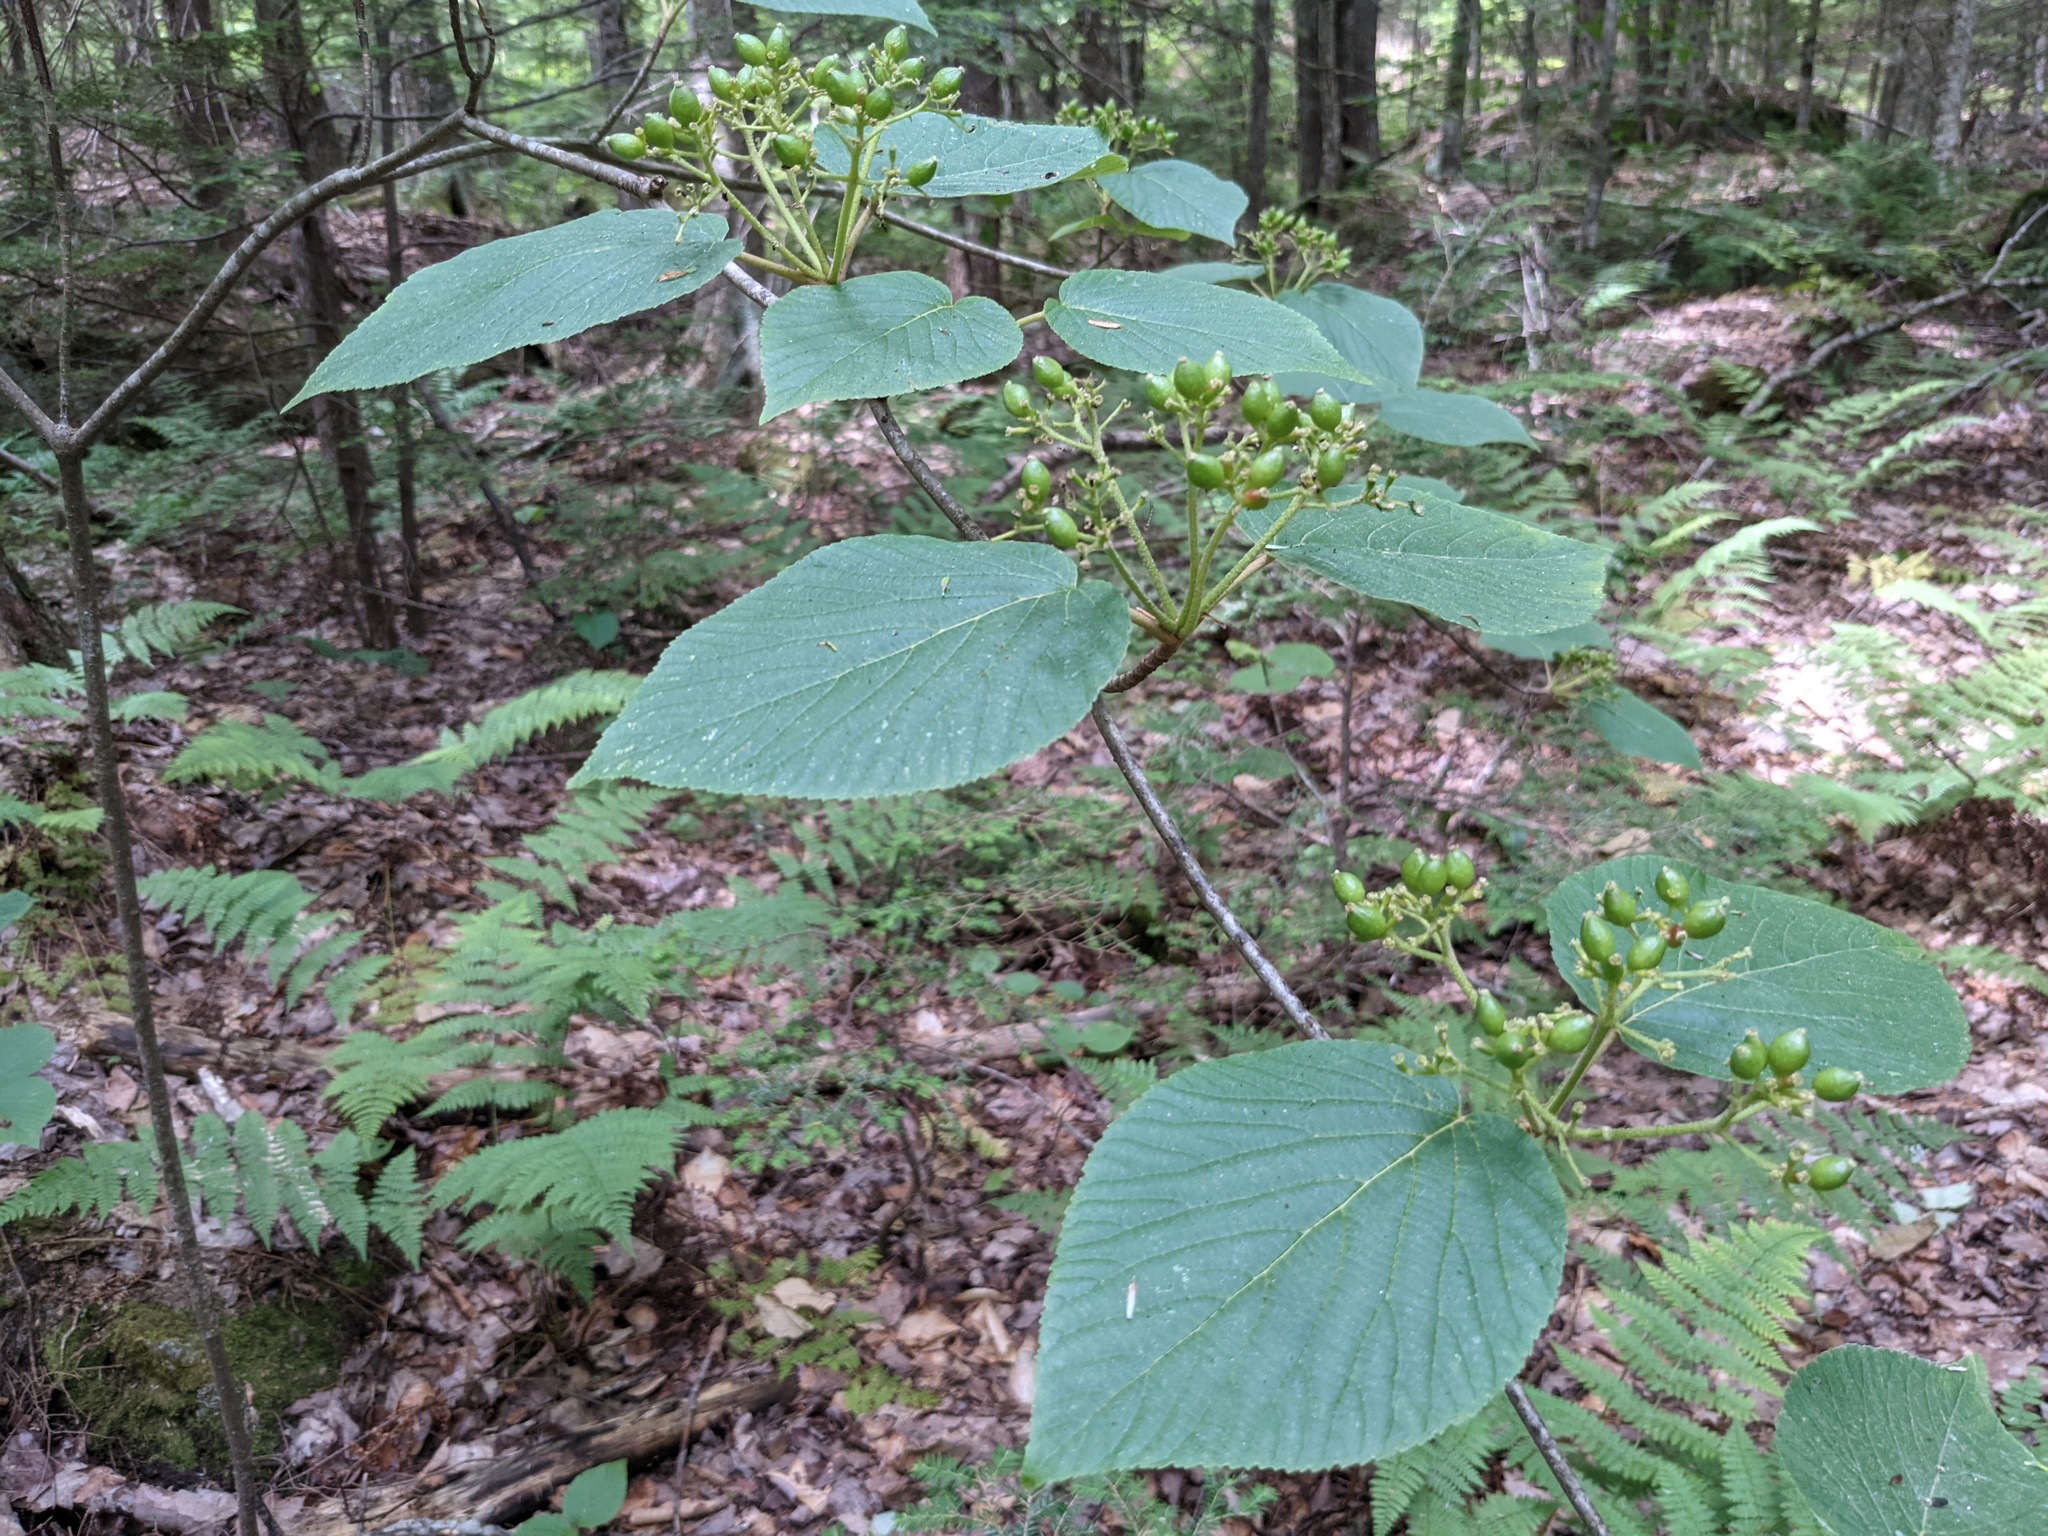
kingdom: Plantae
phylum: Tracheophyta
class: Magnoliopsida
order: Dipsacales
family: Viburnaceae
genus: Viburnum
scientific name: Viburnum lantanoides
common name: Hobblebush
